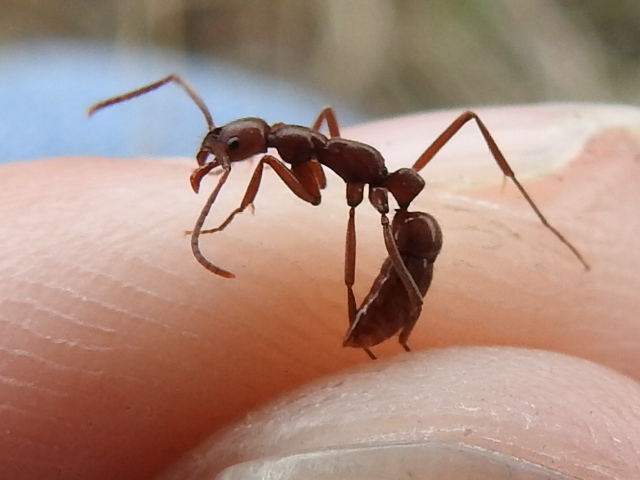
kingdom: Animalia
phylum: Arthropoda
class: Insecta
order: Hymenoptera
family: Formicidae
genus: Leptogenys
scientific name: Leptogenys elongata
